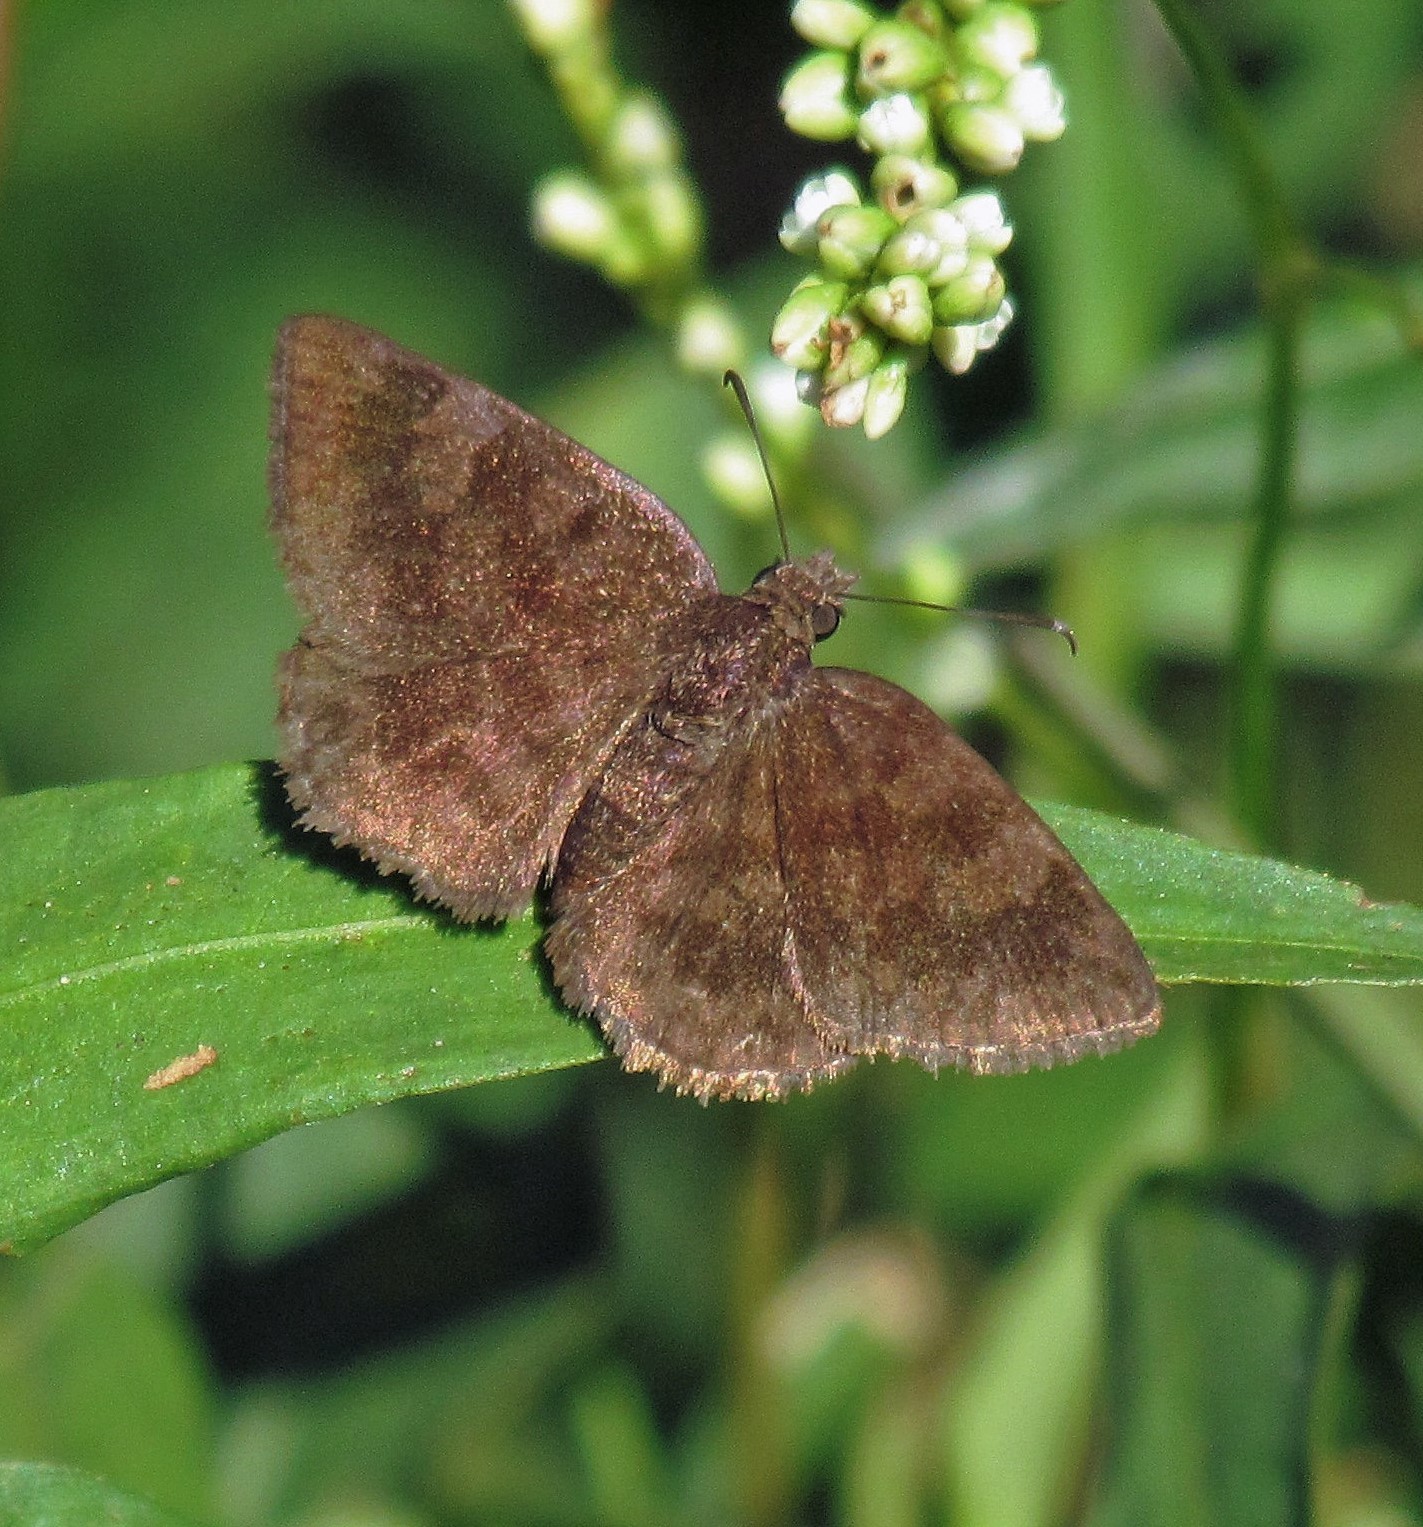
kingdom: Animalia
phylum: Arthropoda
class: Insecta
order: Lepidoptera
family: Hesperiidae
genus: Viola
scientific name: Viola minor
